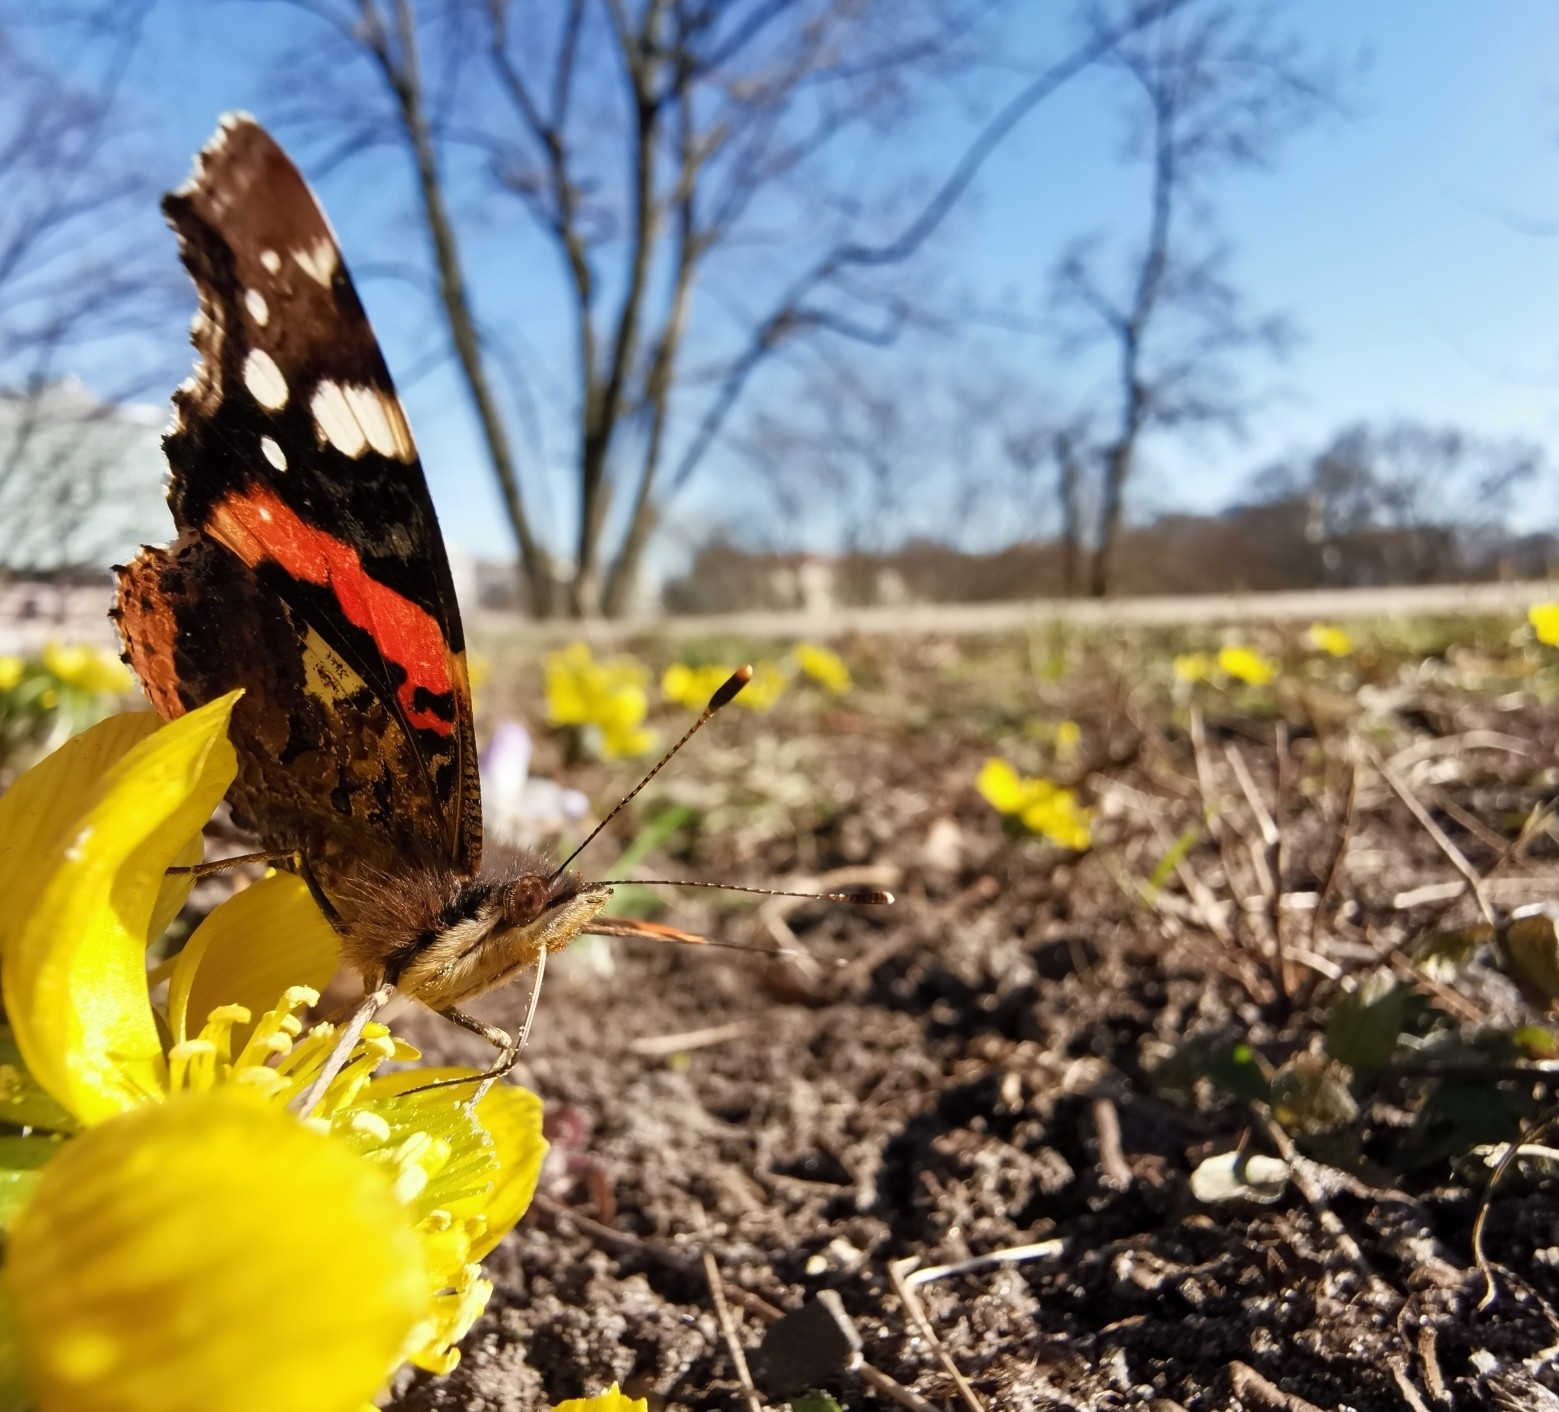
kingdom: Animalia
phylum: Arthropoda
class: Insecta
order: Lepidoptera
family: Nymphalidae
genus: Vanessa
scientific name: Vanessa atalanta
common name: Red admiral
